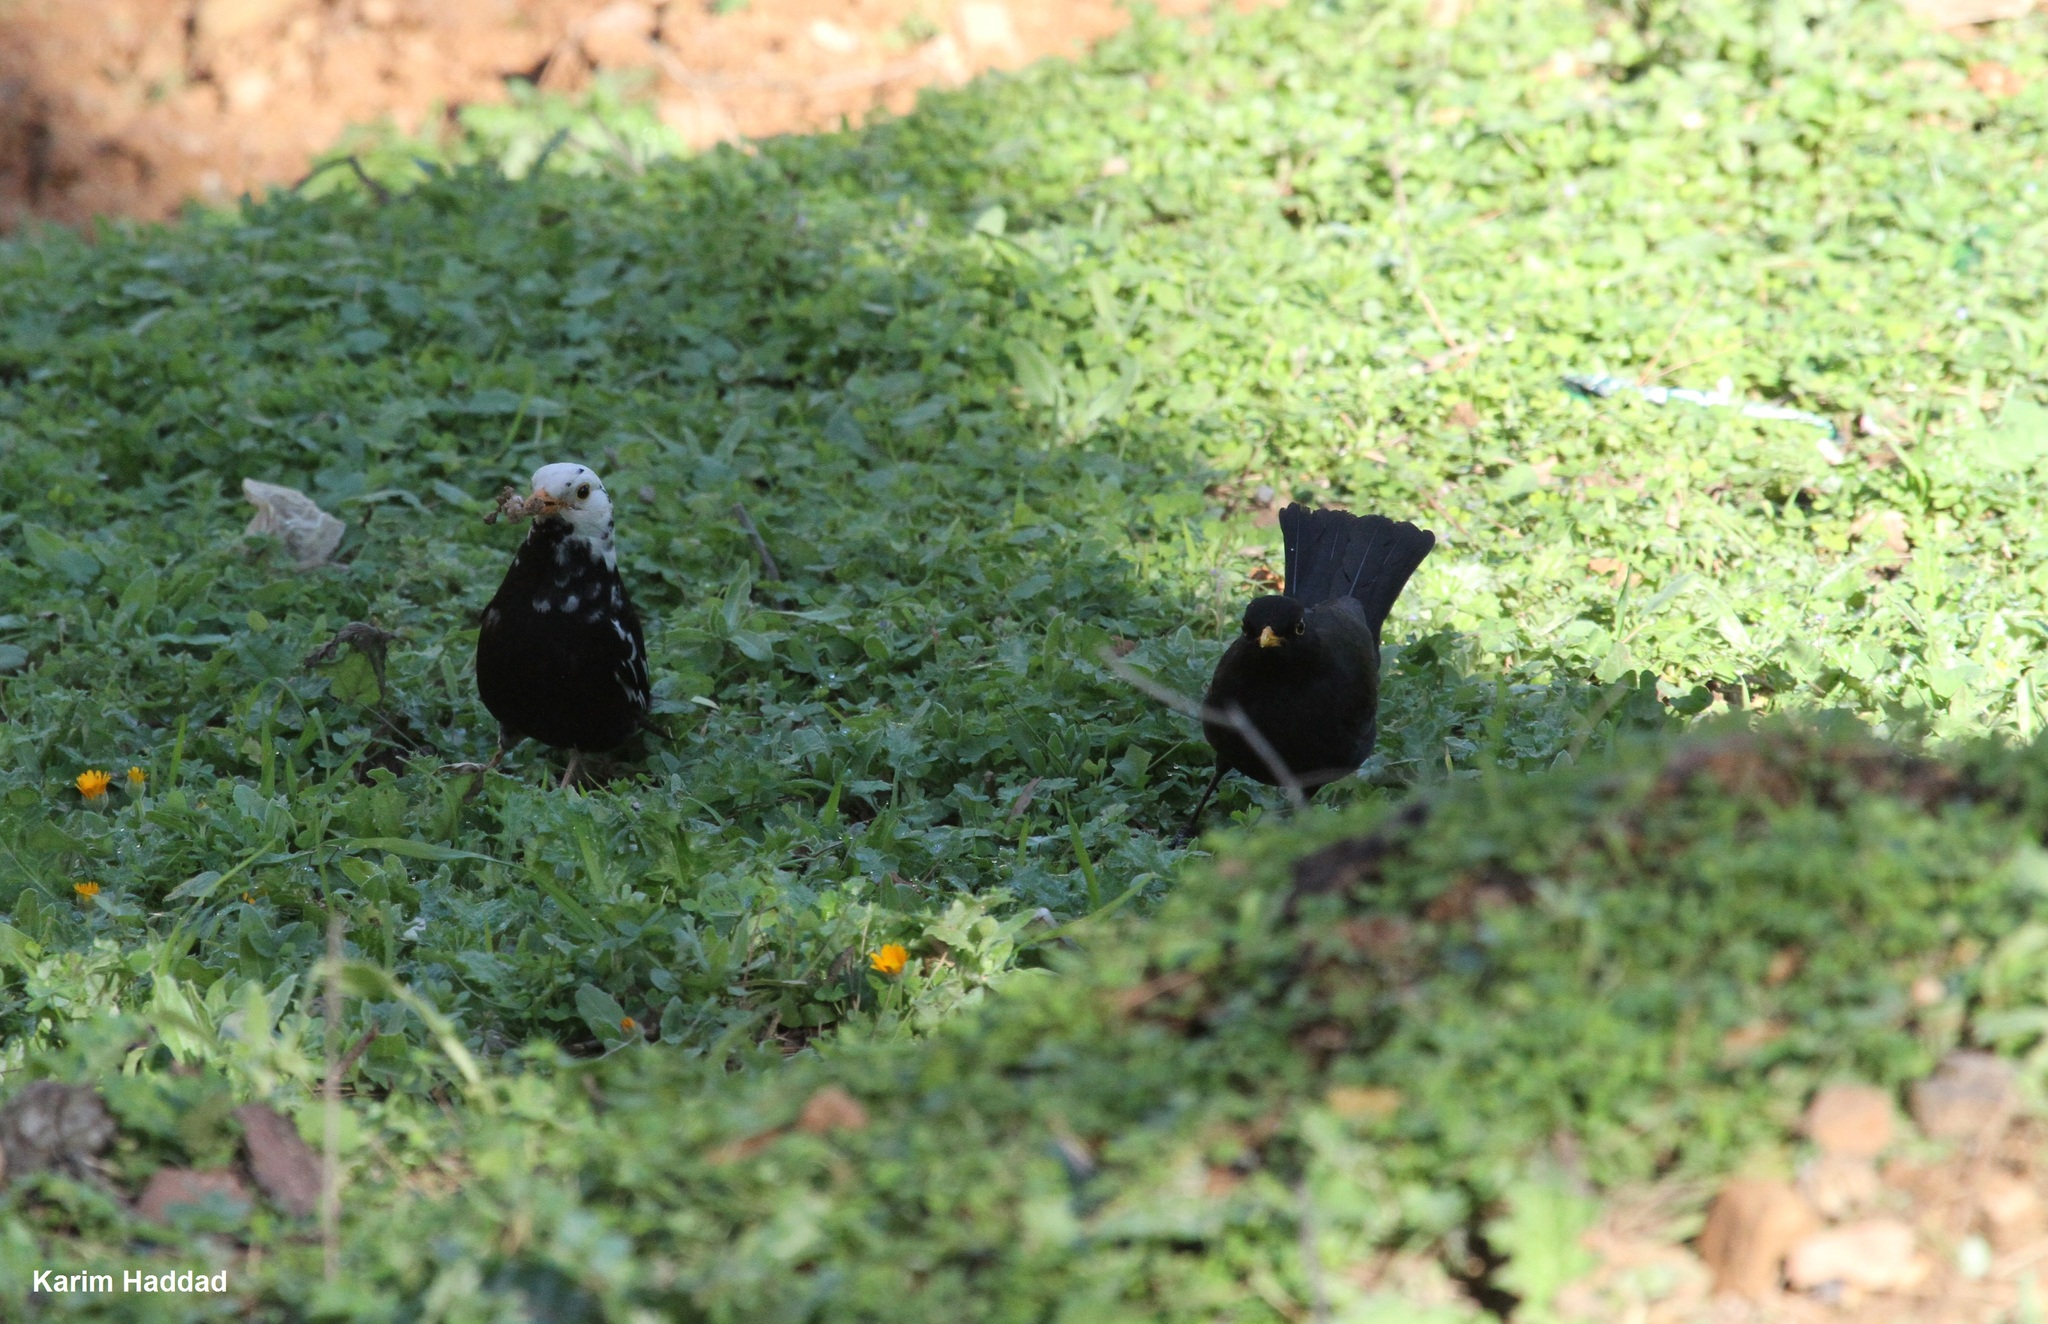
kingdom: Animalia
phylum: Chordata
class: Aves
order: Passeriformes
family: Turdidae
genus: Turdus
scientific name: Turdus merula
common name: Common blackbird
